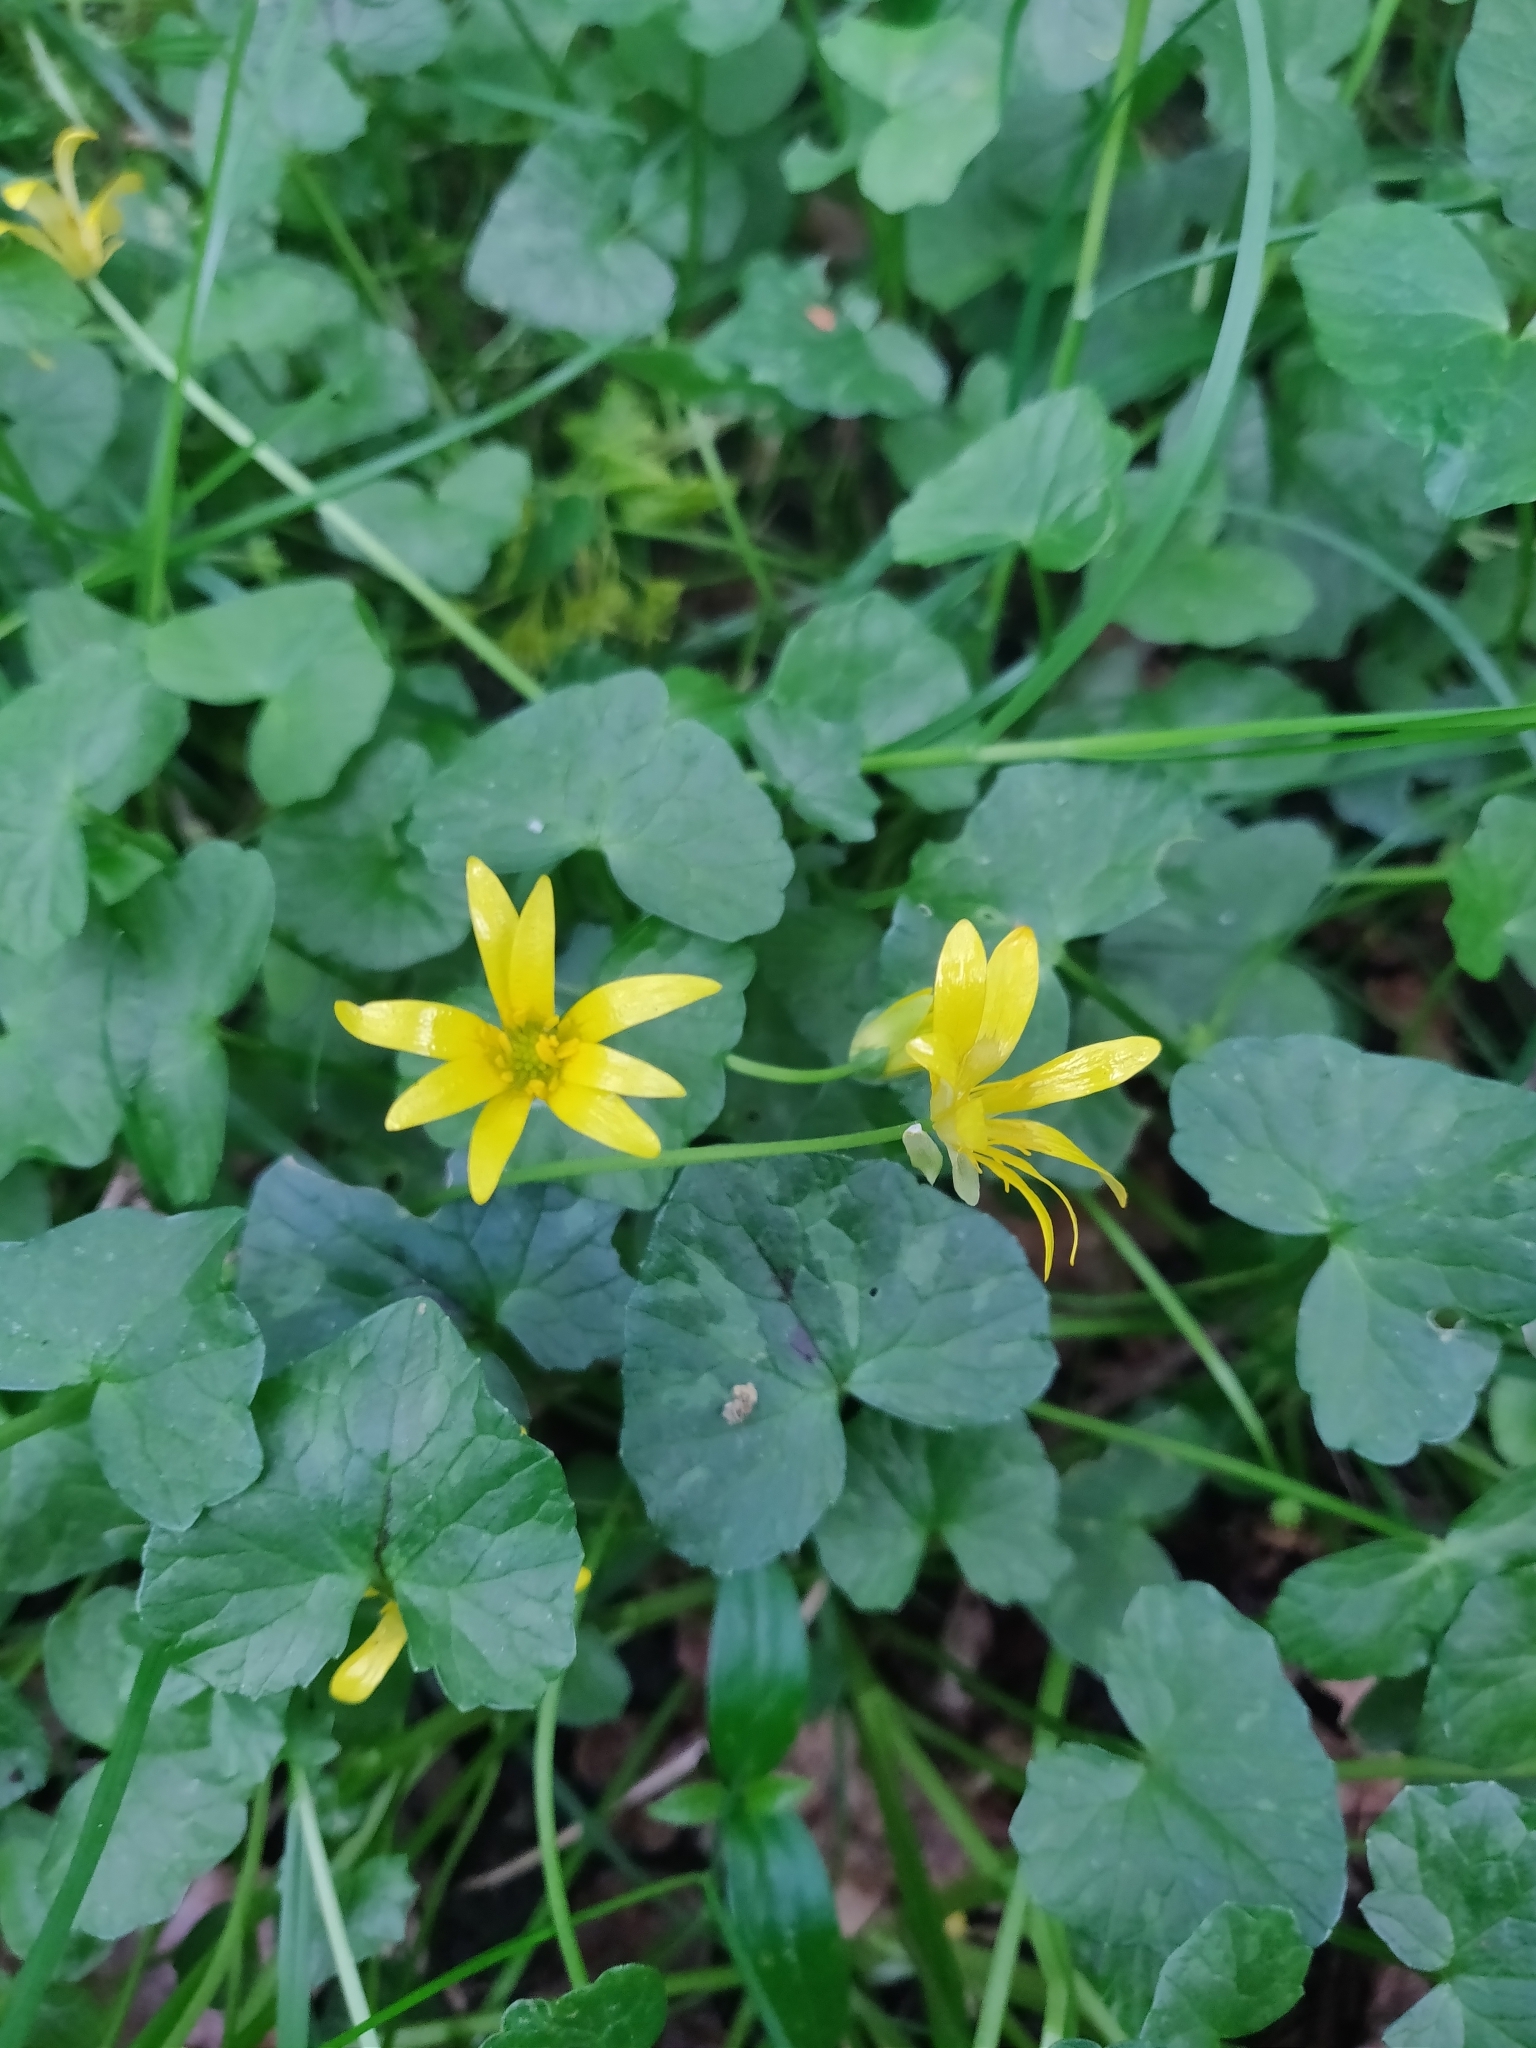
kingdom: Plantae
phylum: Tracheophyta
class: Magnoliopsida
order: Ranunculales
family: Ranunculaceae
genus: Ficaria
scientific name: Ficaria verna
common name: Lesser celandine
